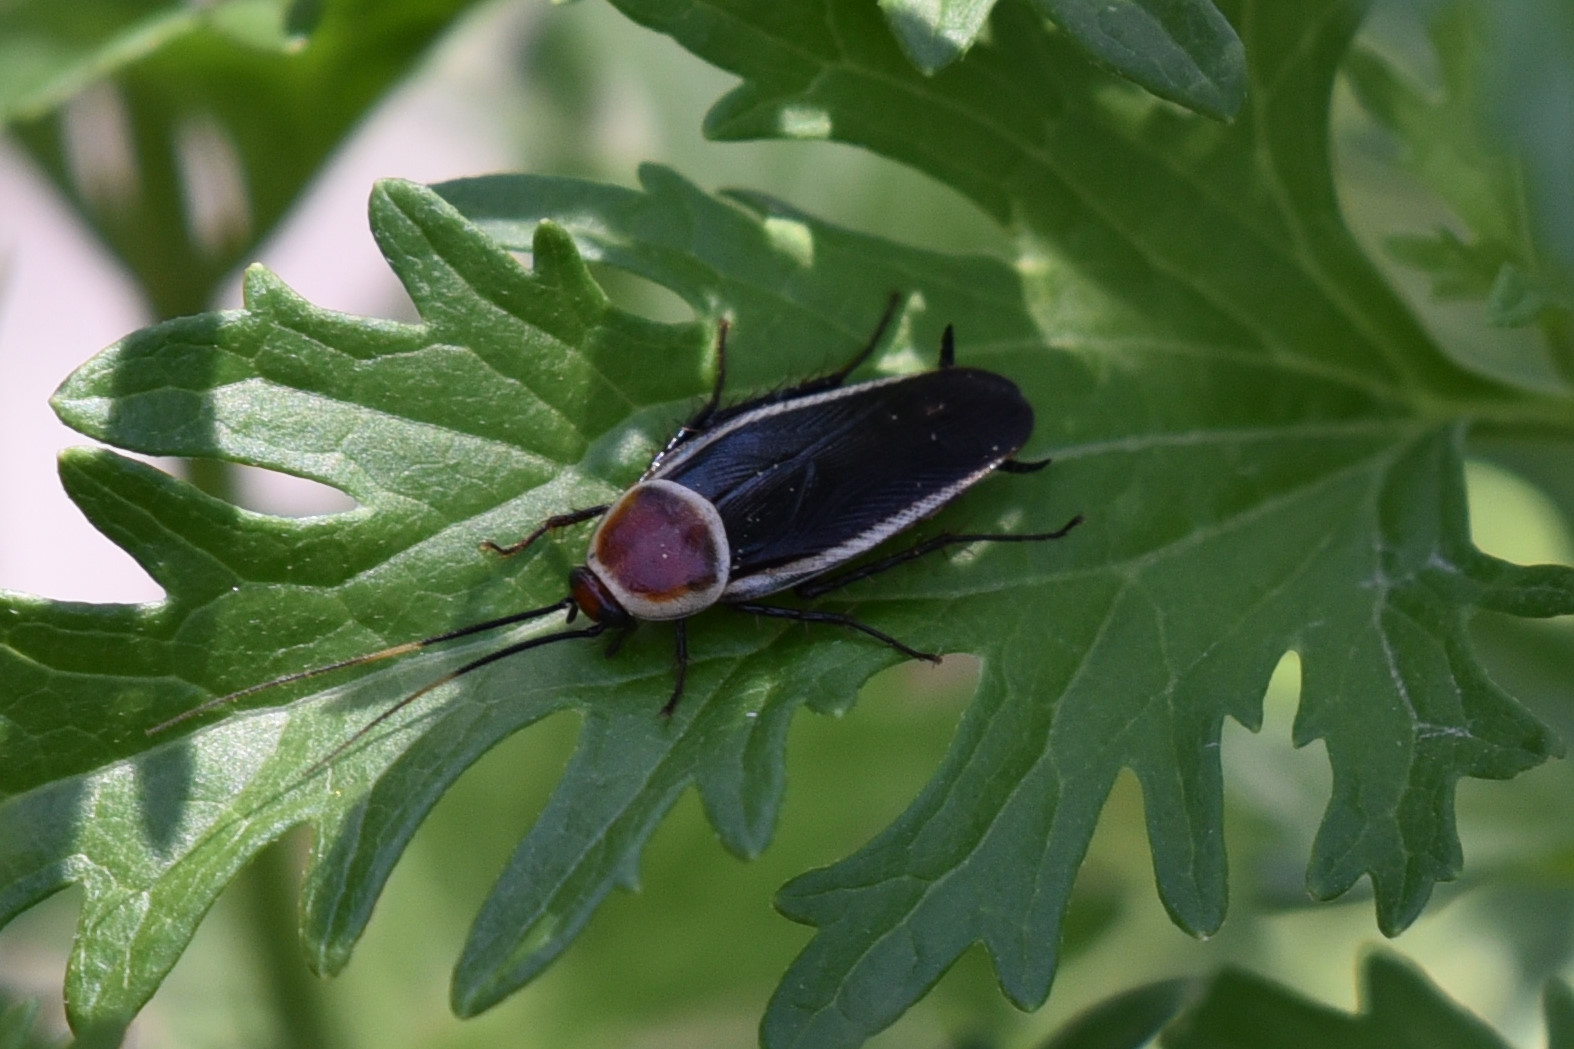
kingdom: Animalia
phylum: Arthropoda
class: Insecta
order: Blattodea
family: Ectobiidae
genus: Pseudomops
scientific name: Pseudomops septentrionalis
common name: Pale-bordered field cockroach
